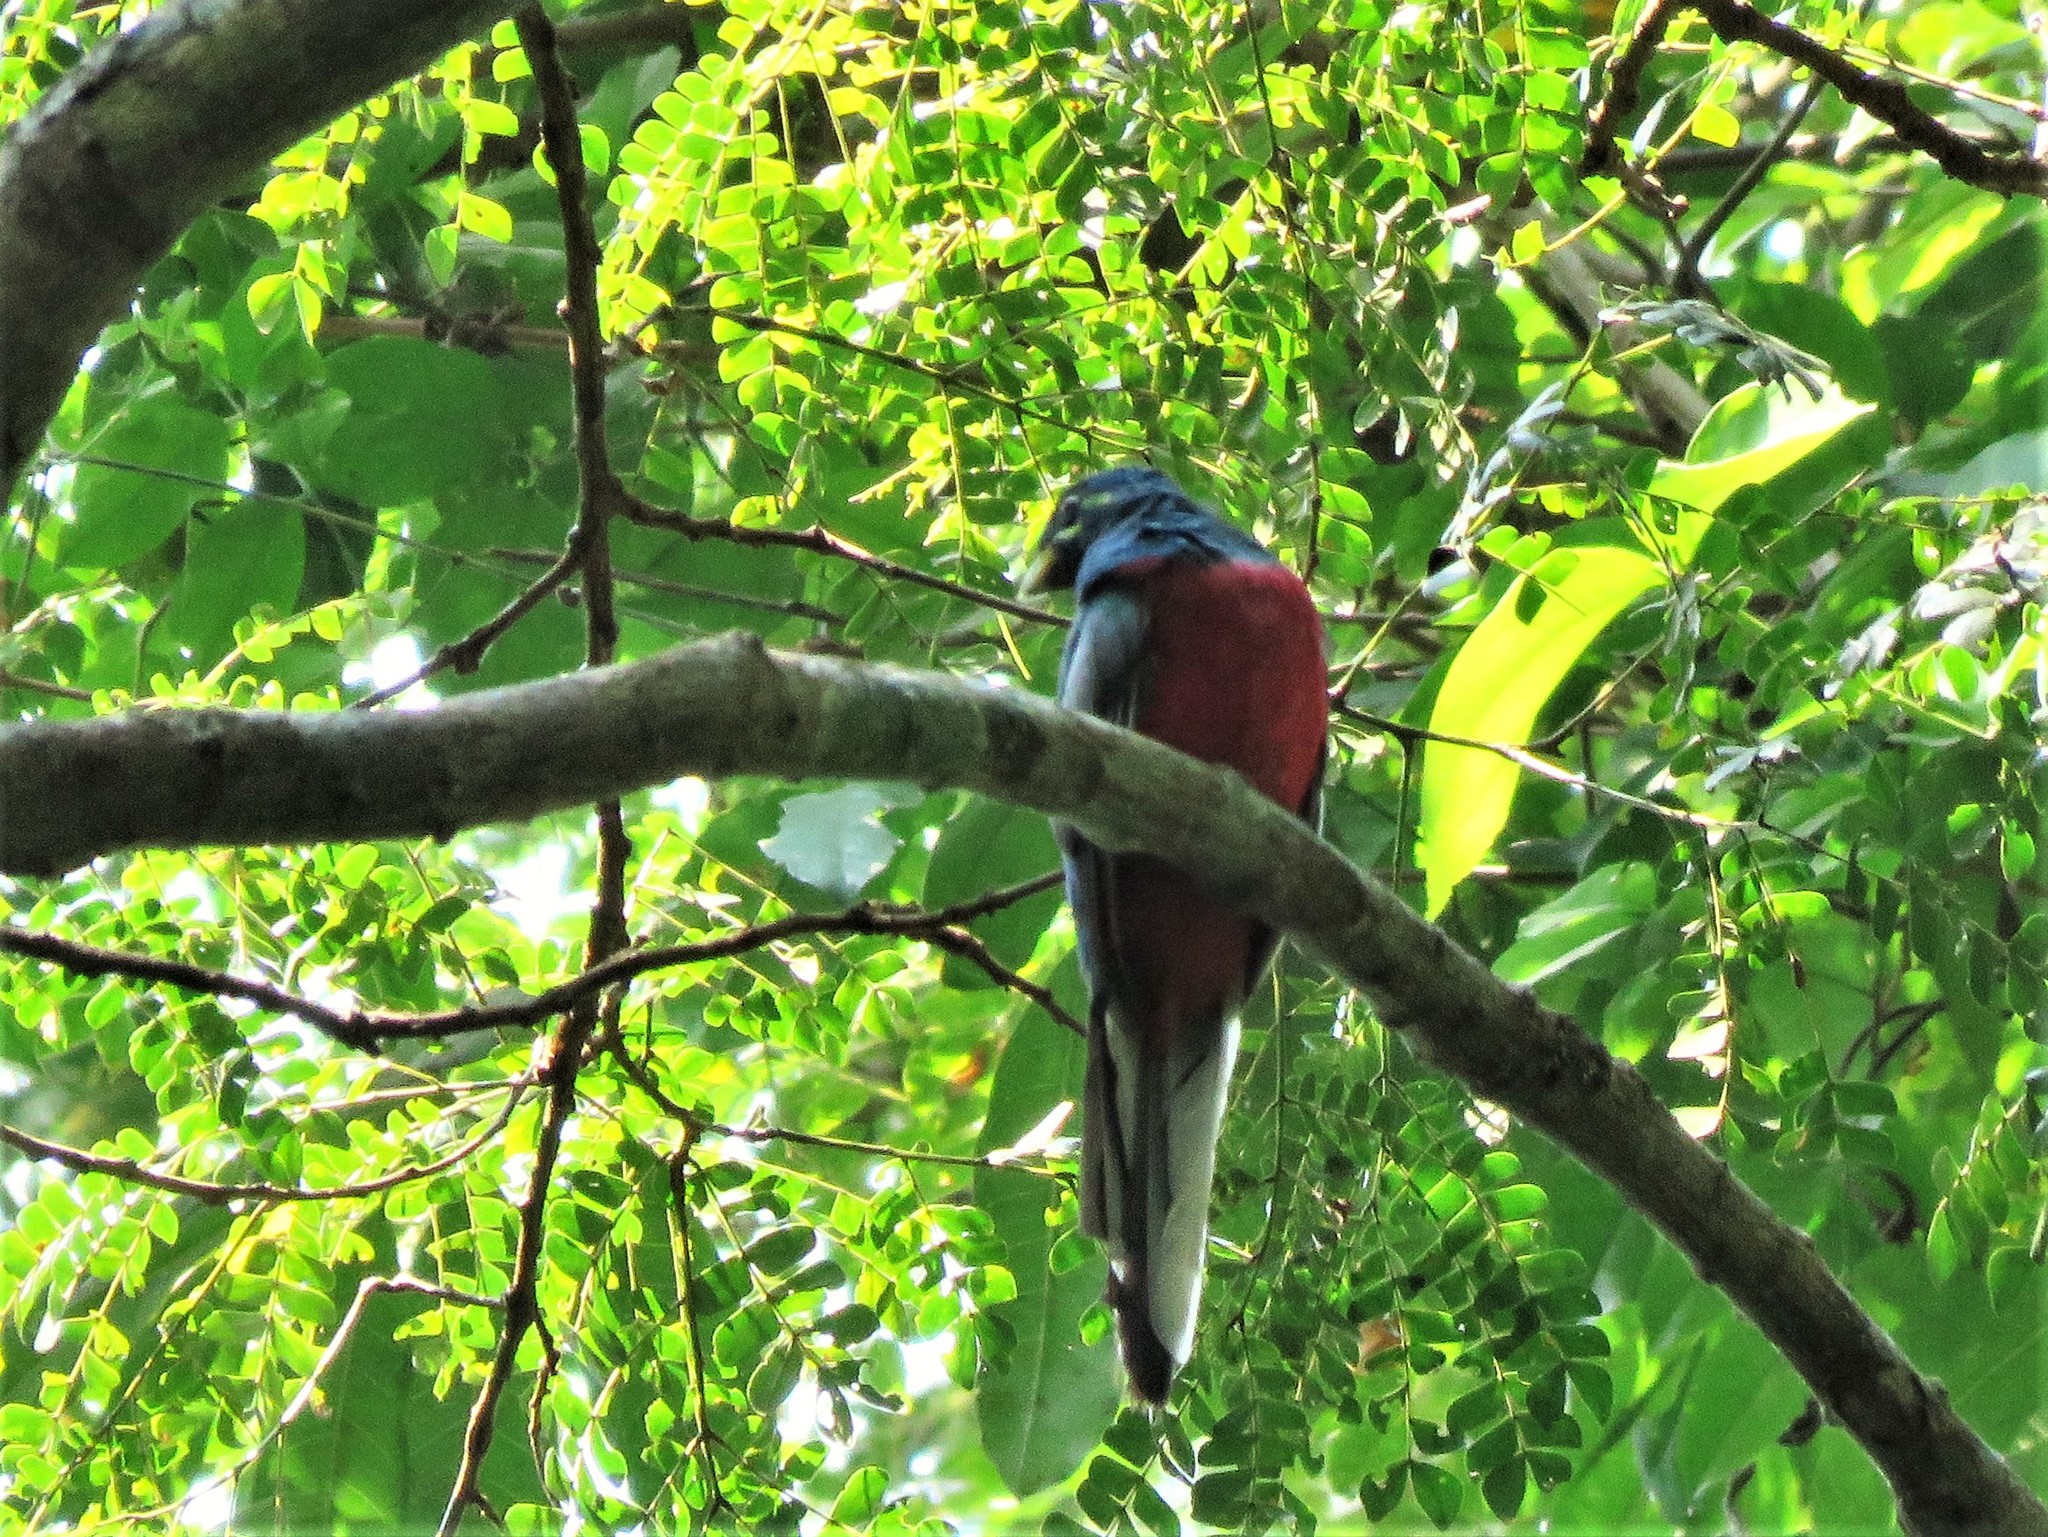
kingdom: Animalia
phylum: Chordata
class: Aves
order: Trogoniformes
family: Trogonidae
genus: Apaloderma
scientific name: Apaloderma narina
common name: Narina trogon
